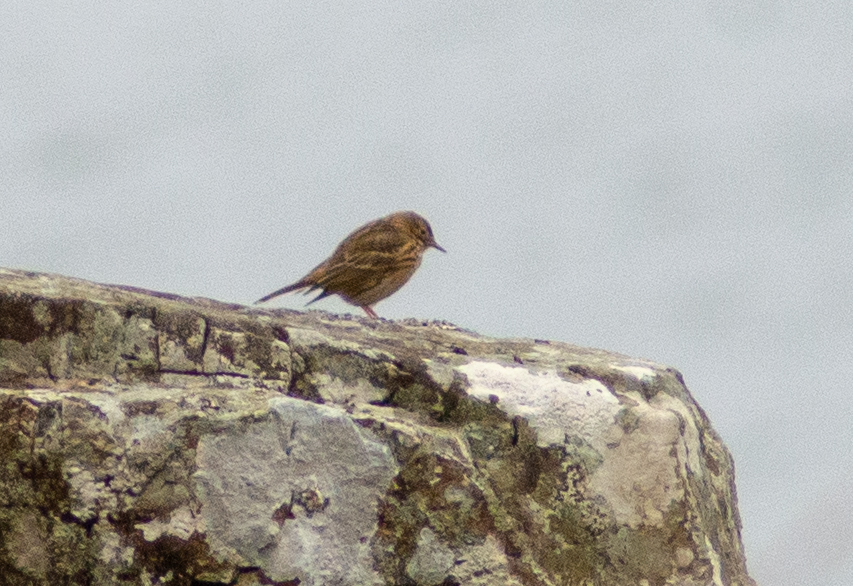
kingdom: Animalia
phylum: Chordata
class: Aves
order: Passeriformes
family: Motacillidae
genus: Anthus
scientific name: Anthus pratensis
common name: Meadow pipit
